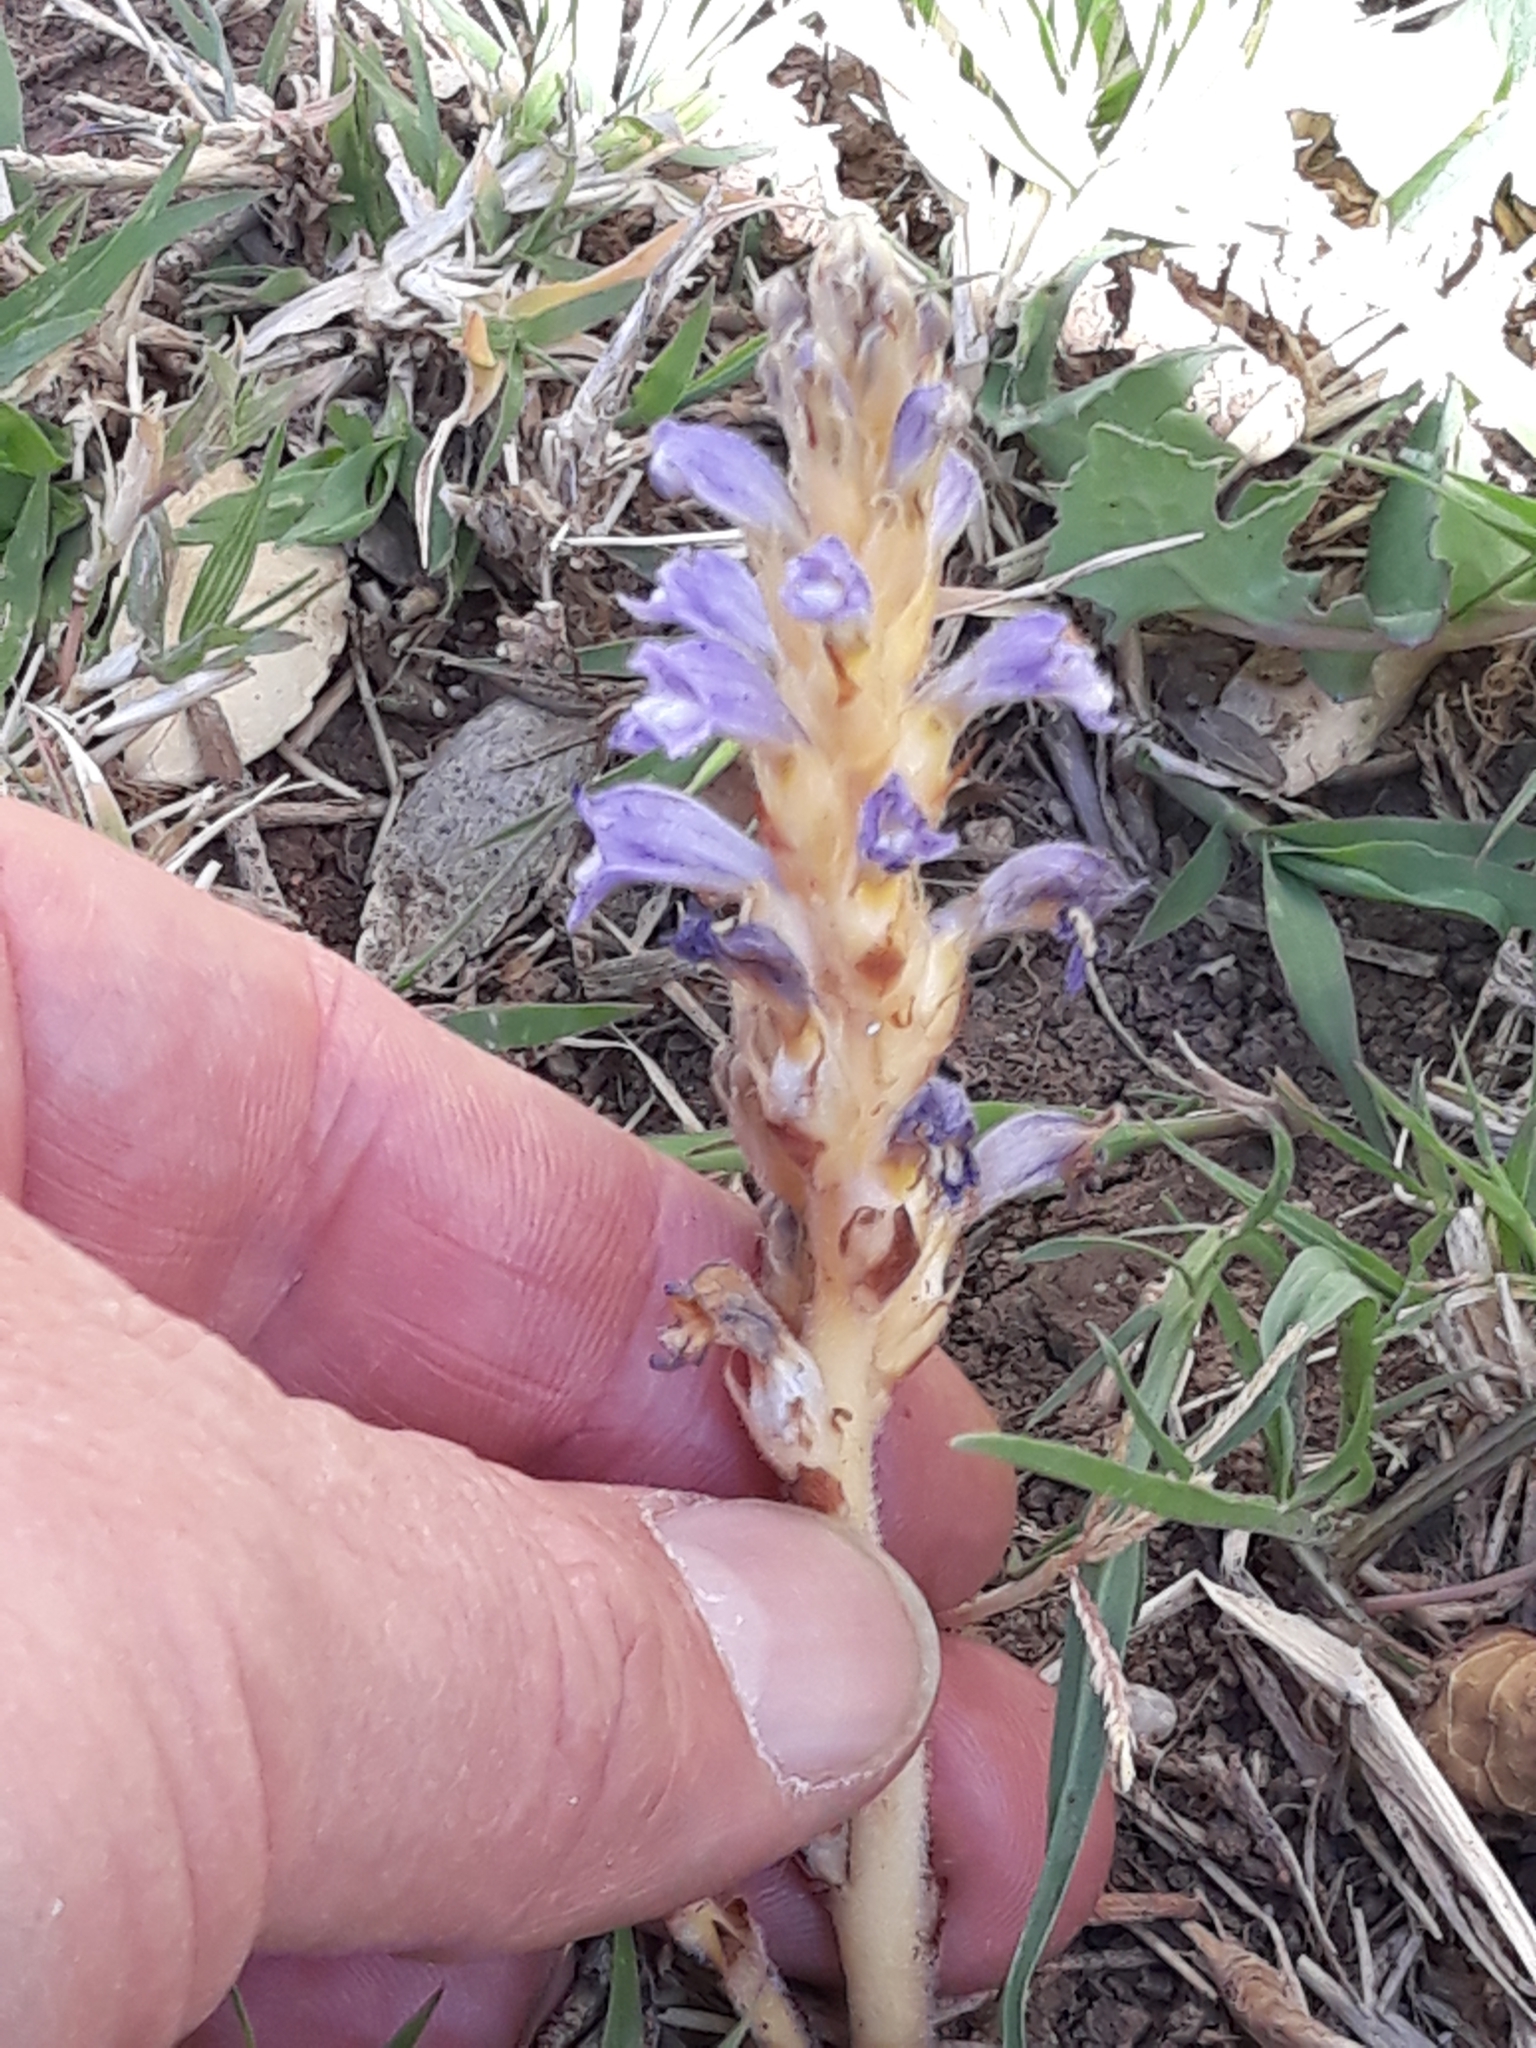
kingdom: Plantae
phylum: Tracheophyta
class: Magnoliopsida
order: Lamiales
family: Orobanchaceae
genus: Phelipanche
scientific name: Phelipanche mutelii
